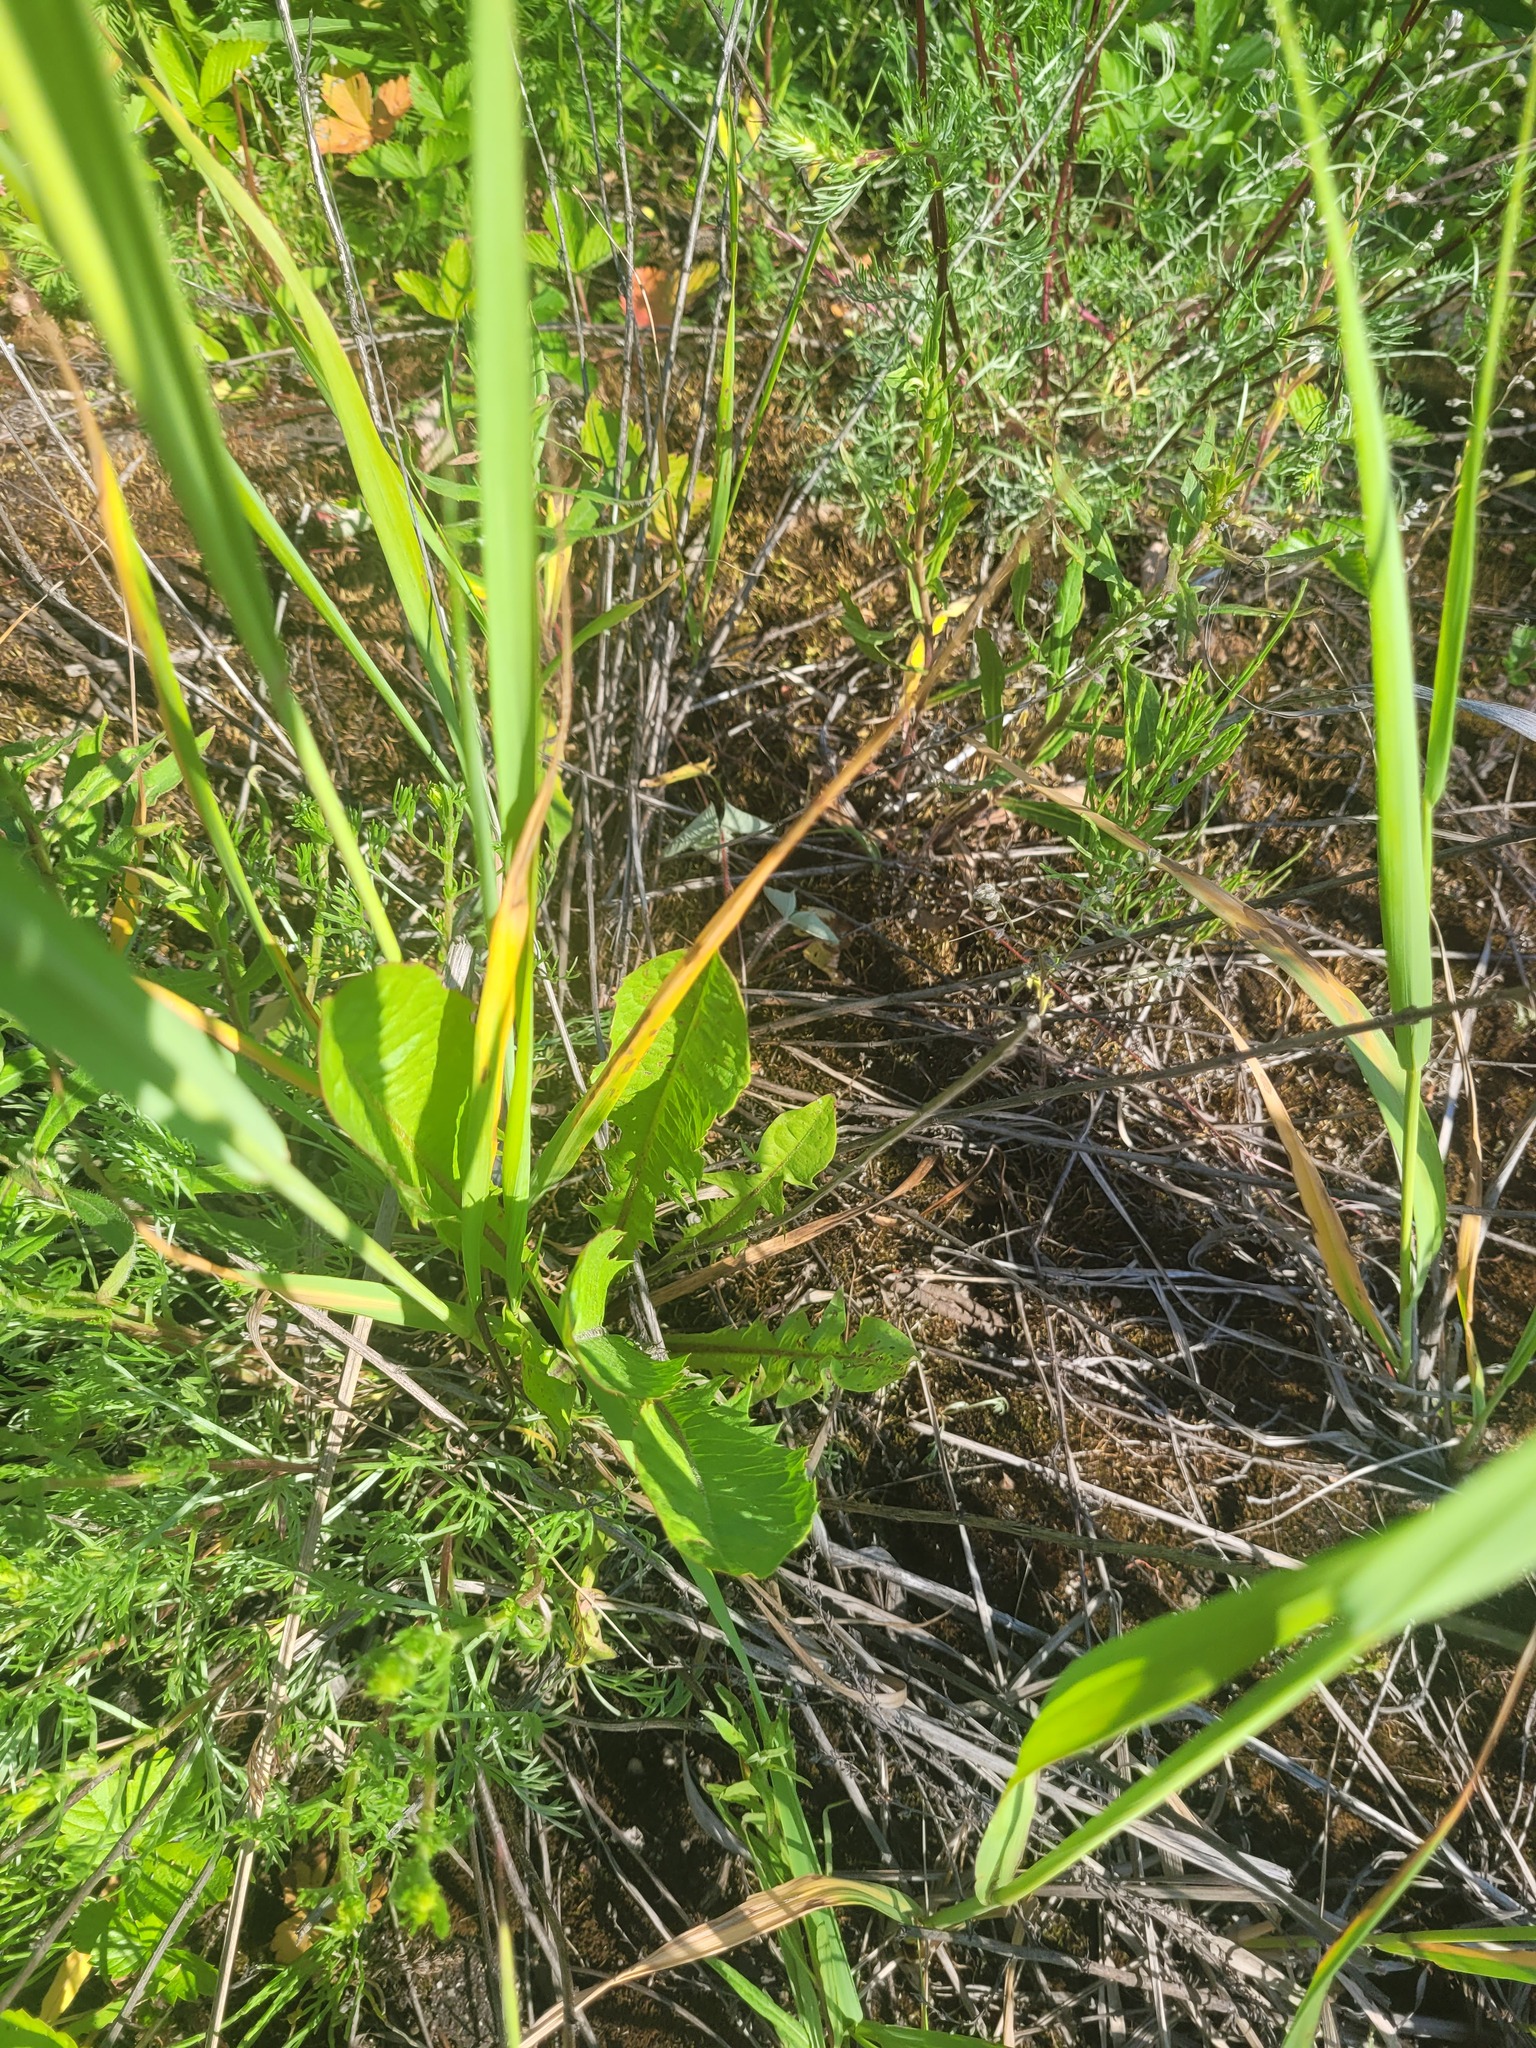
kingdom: Plantae
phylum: Tracheophyta
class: Magnoliopsida
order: Asterales
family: Asteraceae
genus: Taraxacum
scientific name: Taraxacum officinale
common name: Common dandelion
